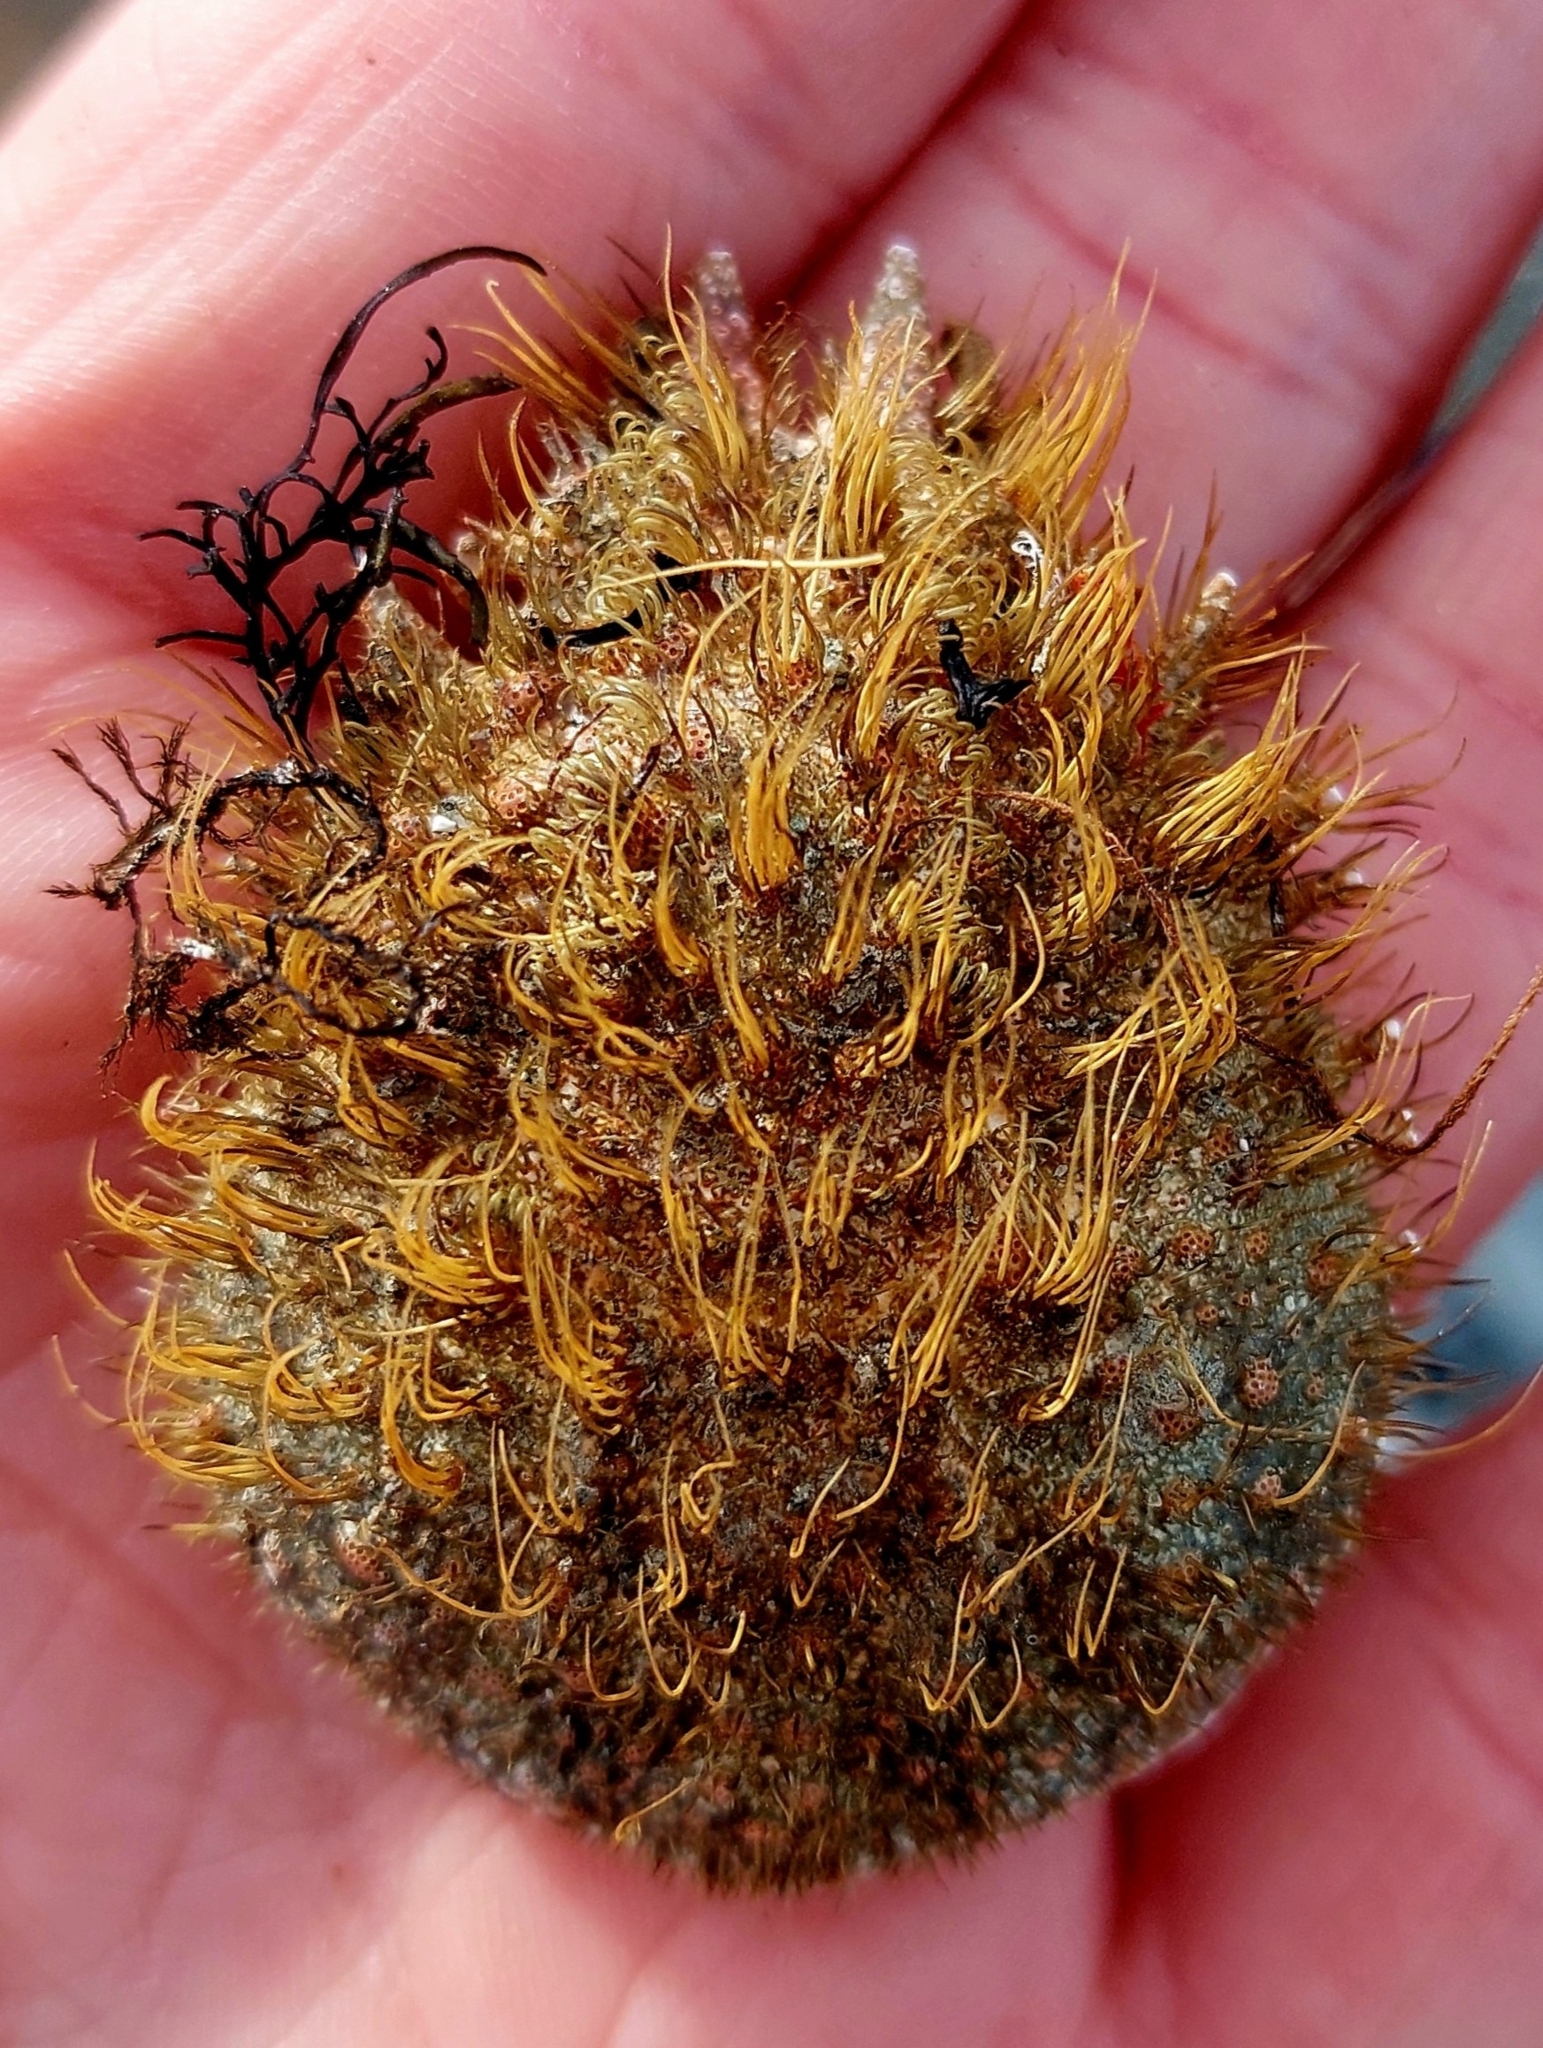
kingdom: Animalia
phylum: Arthropoda
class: Malacostraca
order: Decapoda
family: Majidae
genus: Notomithrax
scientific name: Notomithrax ursus
